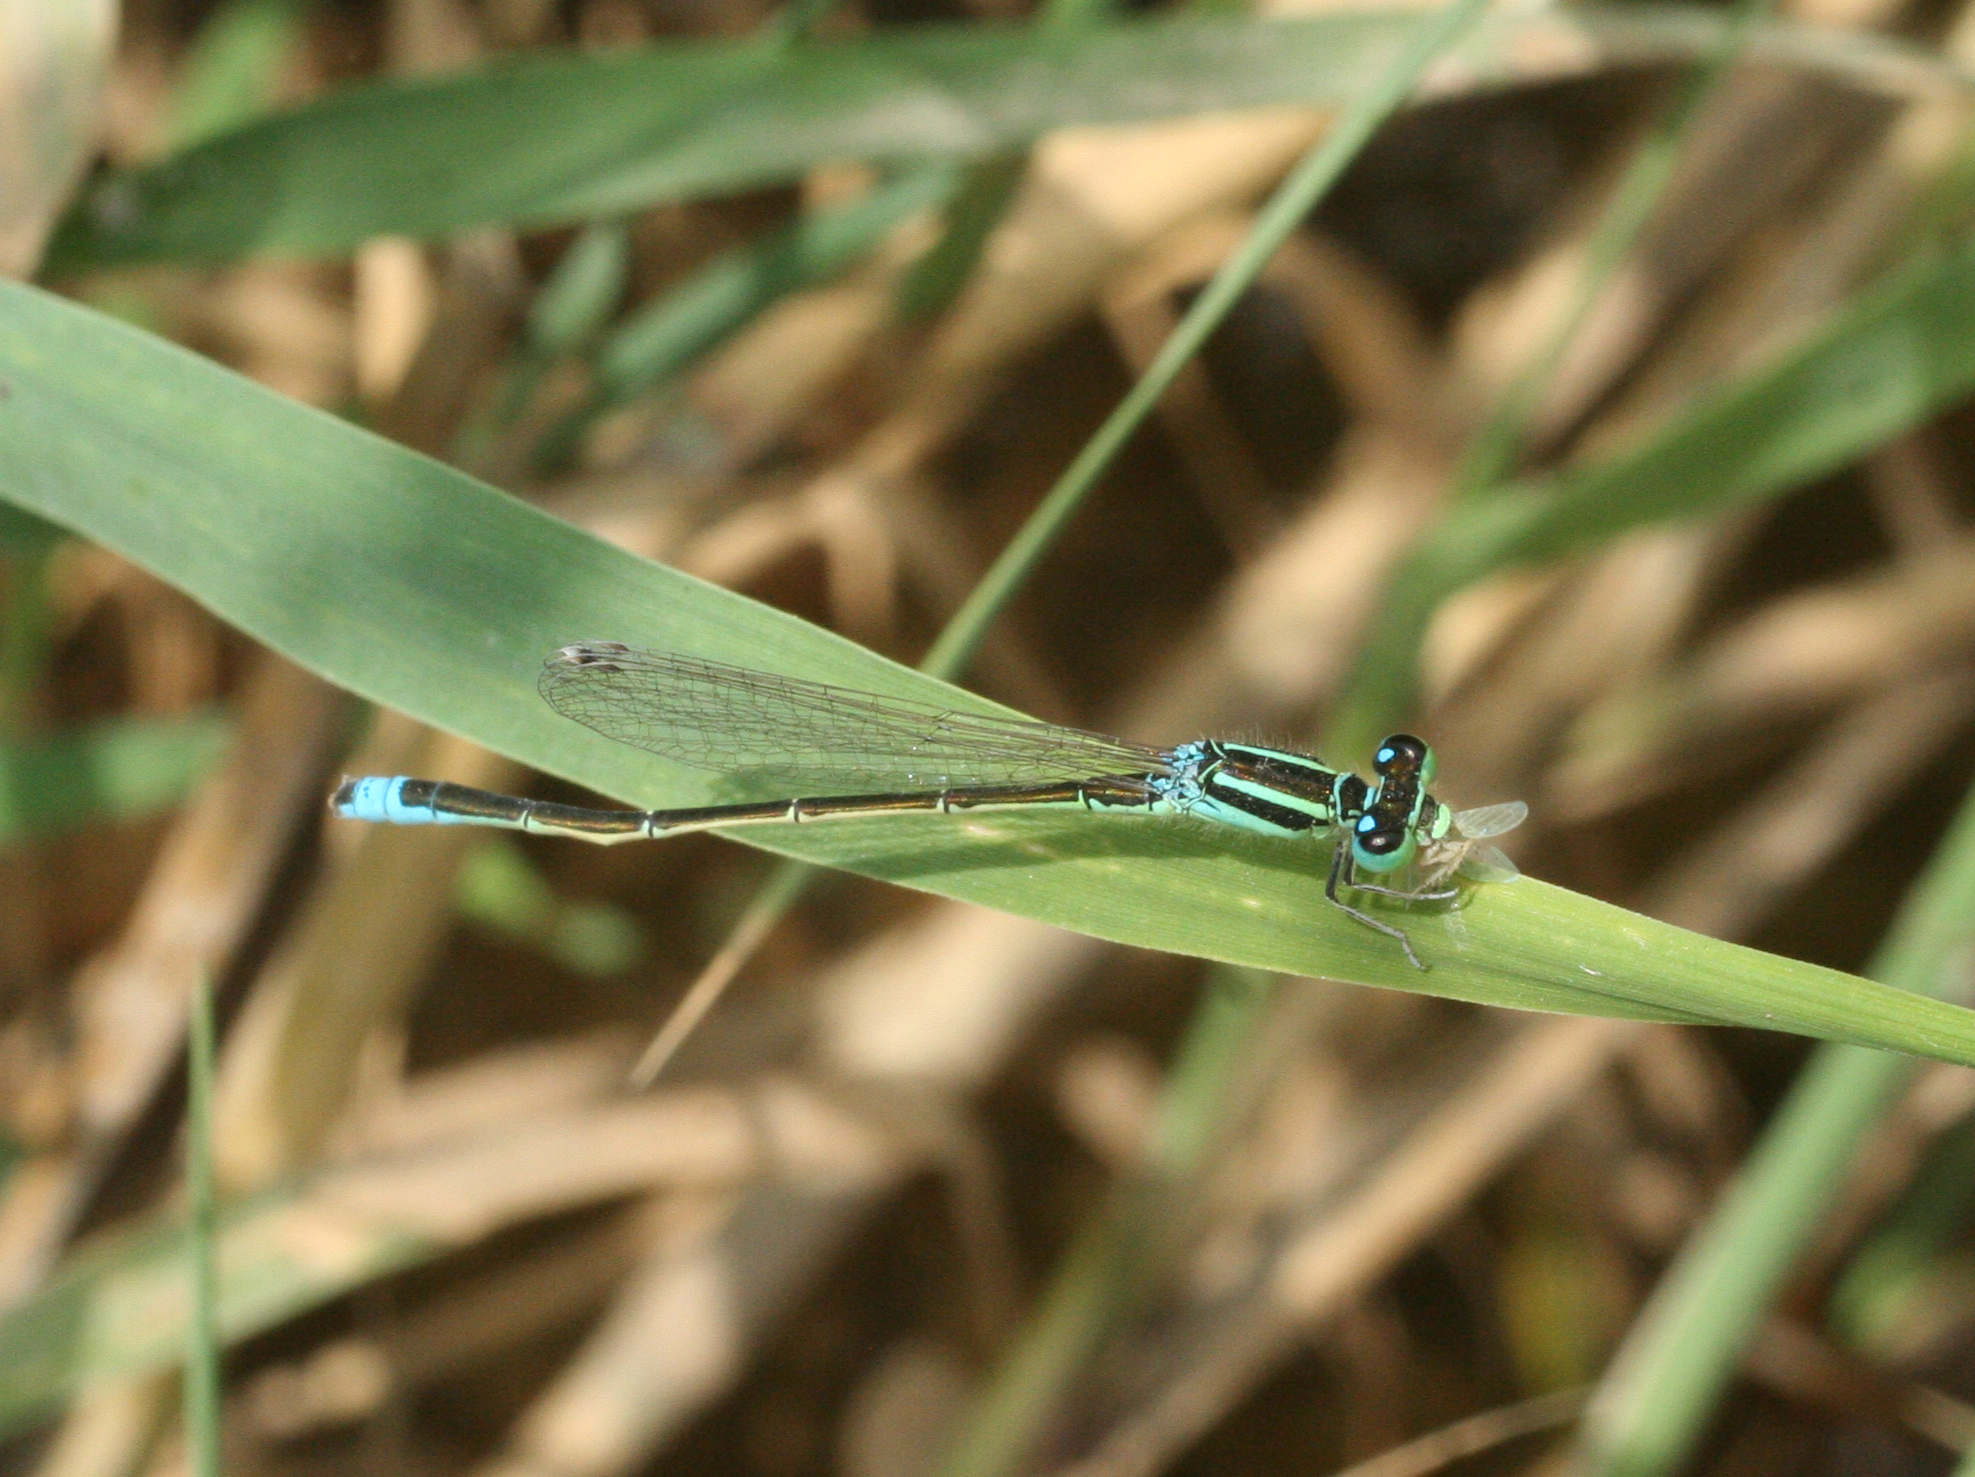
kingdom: Animalia
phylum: Arthropoda
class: Insecta
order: Odonata
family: Coenagrionidae
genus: Ischnura
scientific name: Ischnura pumilio
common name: Scarce blue-tailed damselfly
